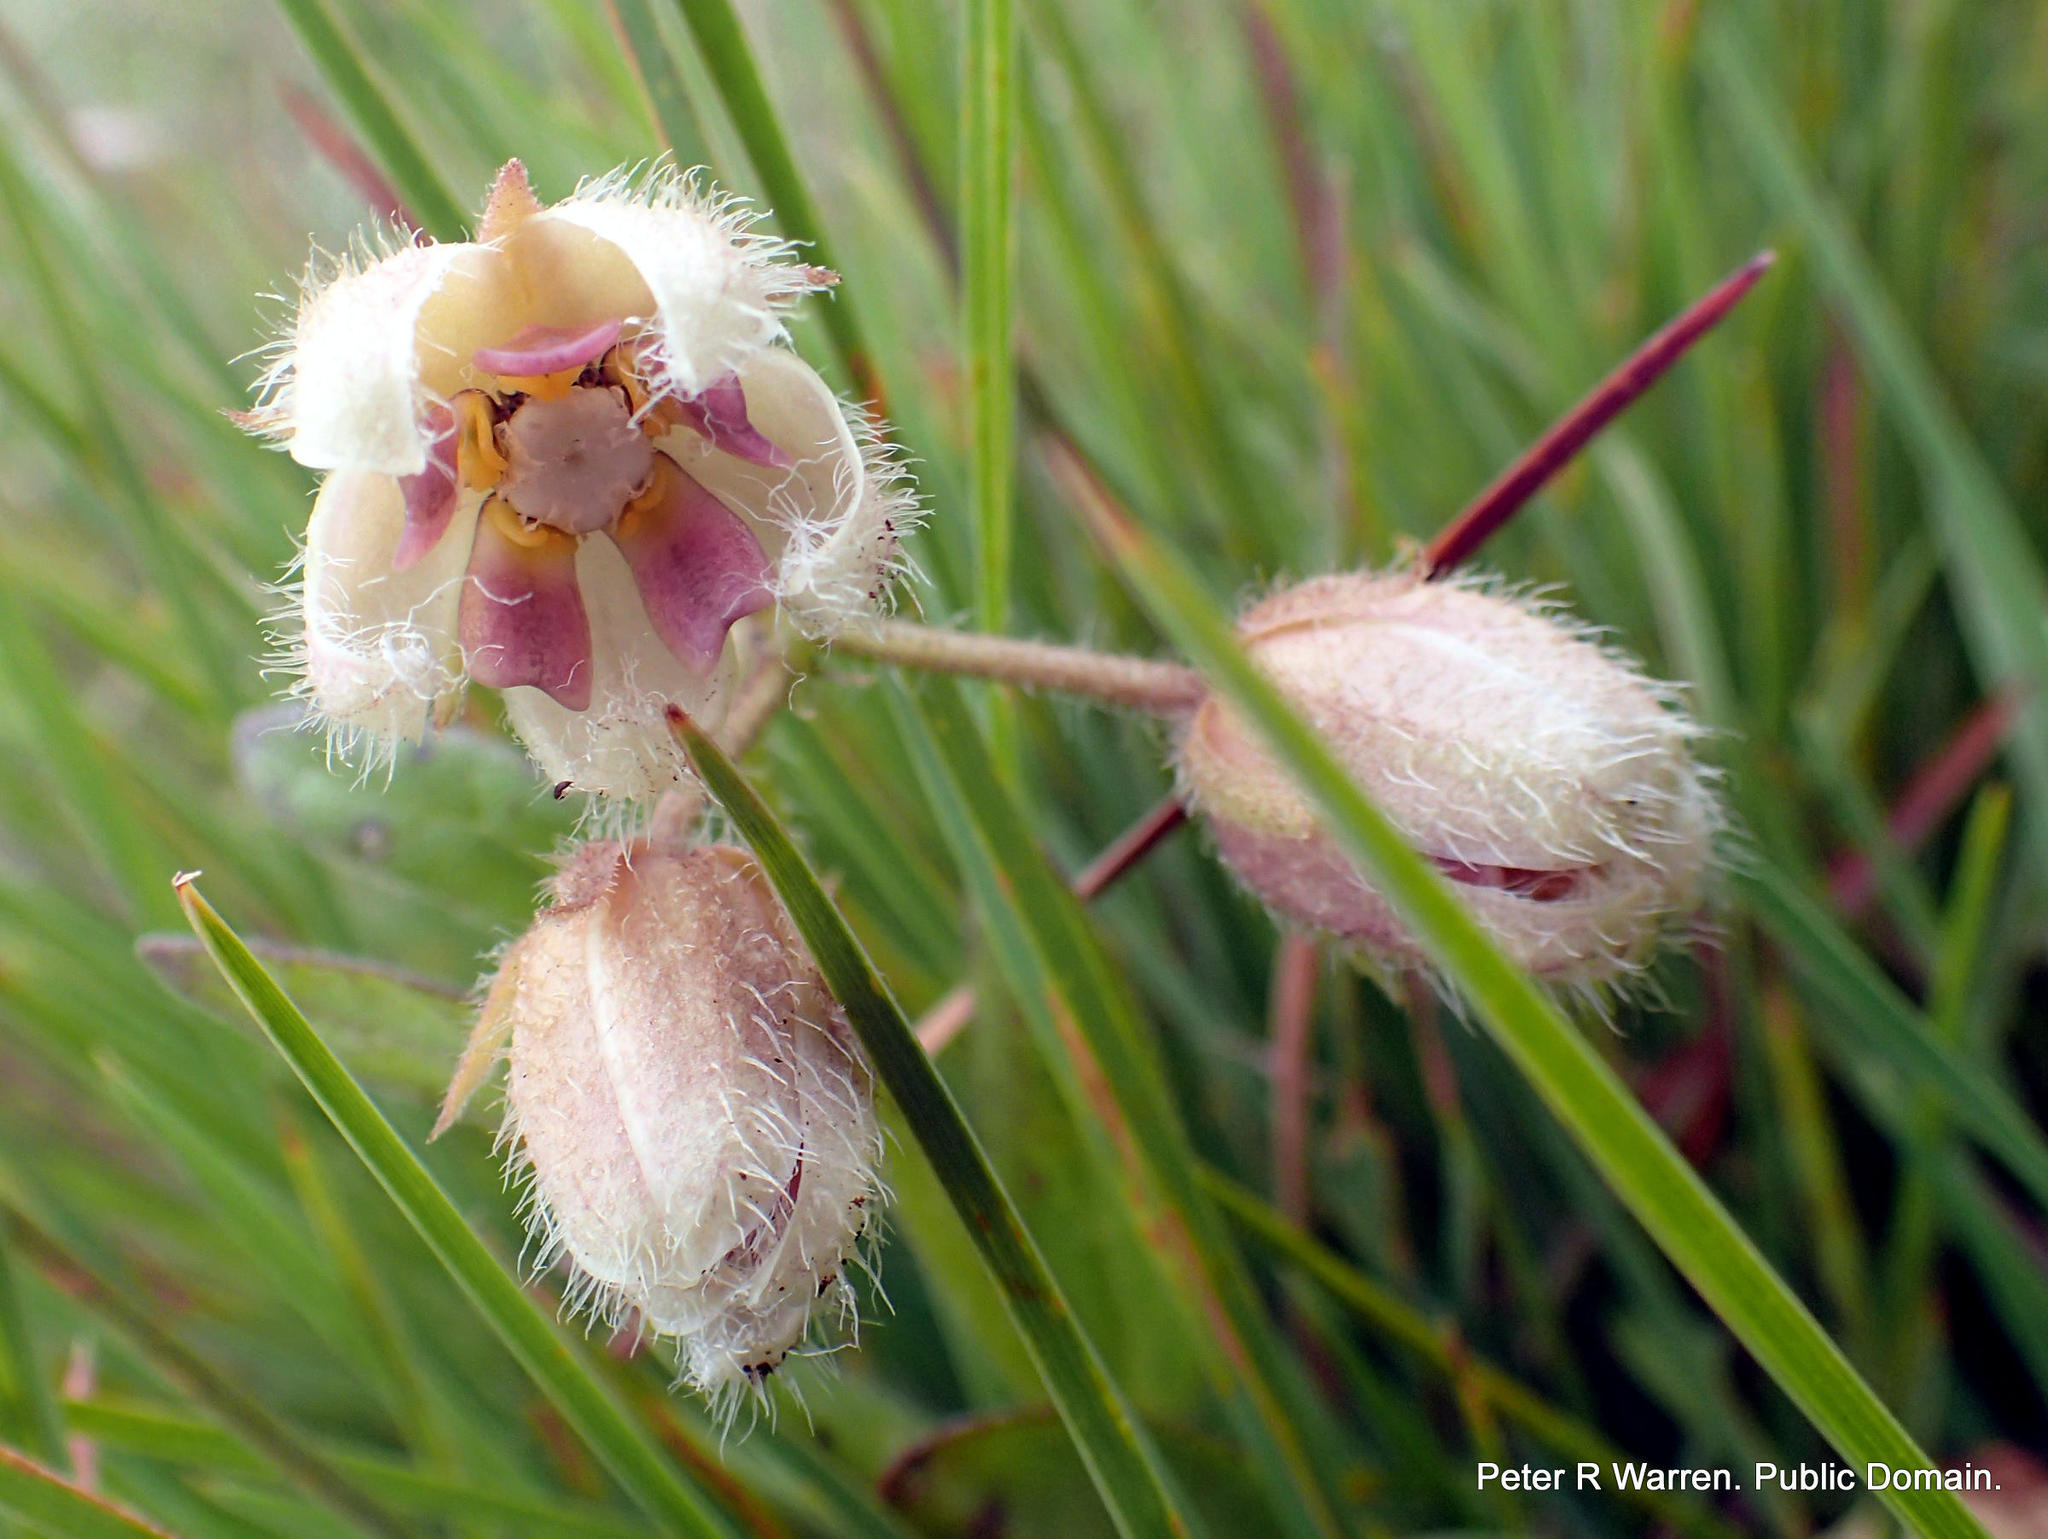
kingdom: Plantae
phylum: Tracheophyta
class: Magnoliopsida
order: Gentianales
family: Apocynaceae
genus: Fanninia
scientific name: Fanninia caloglossa
